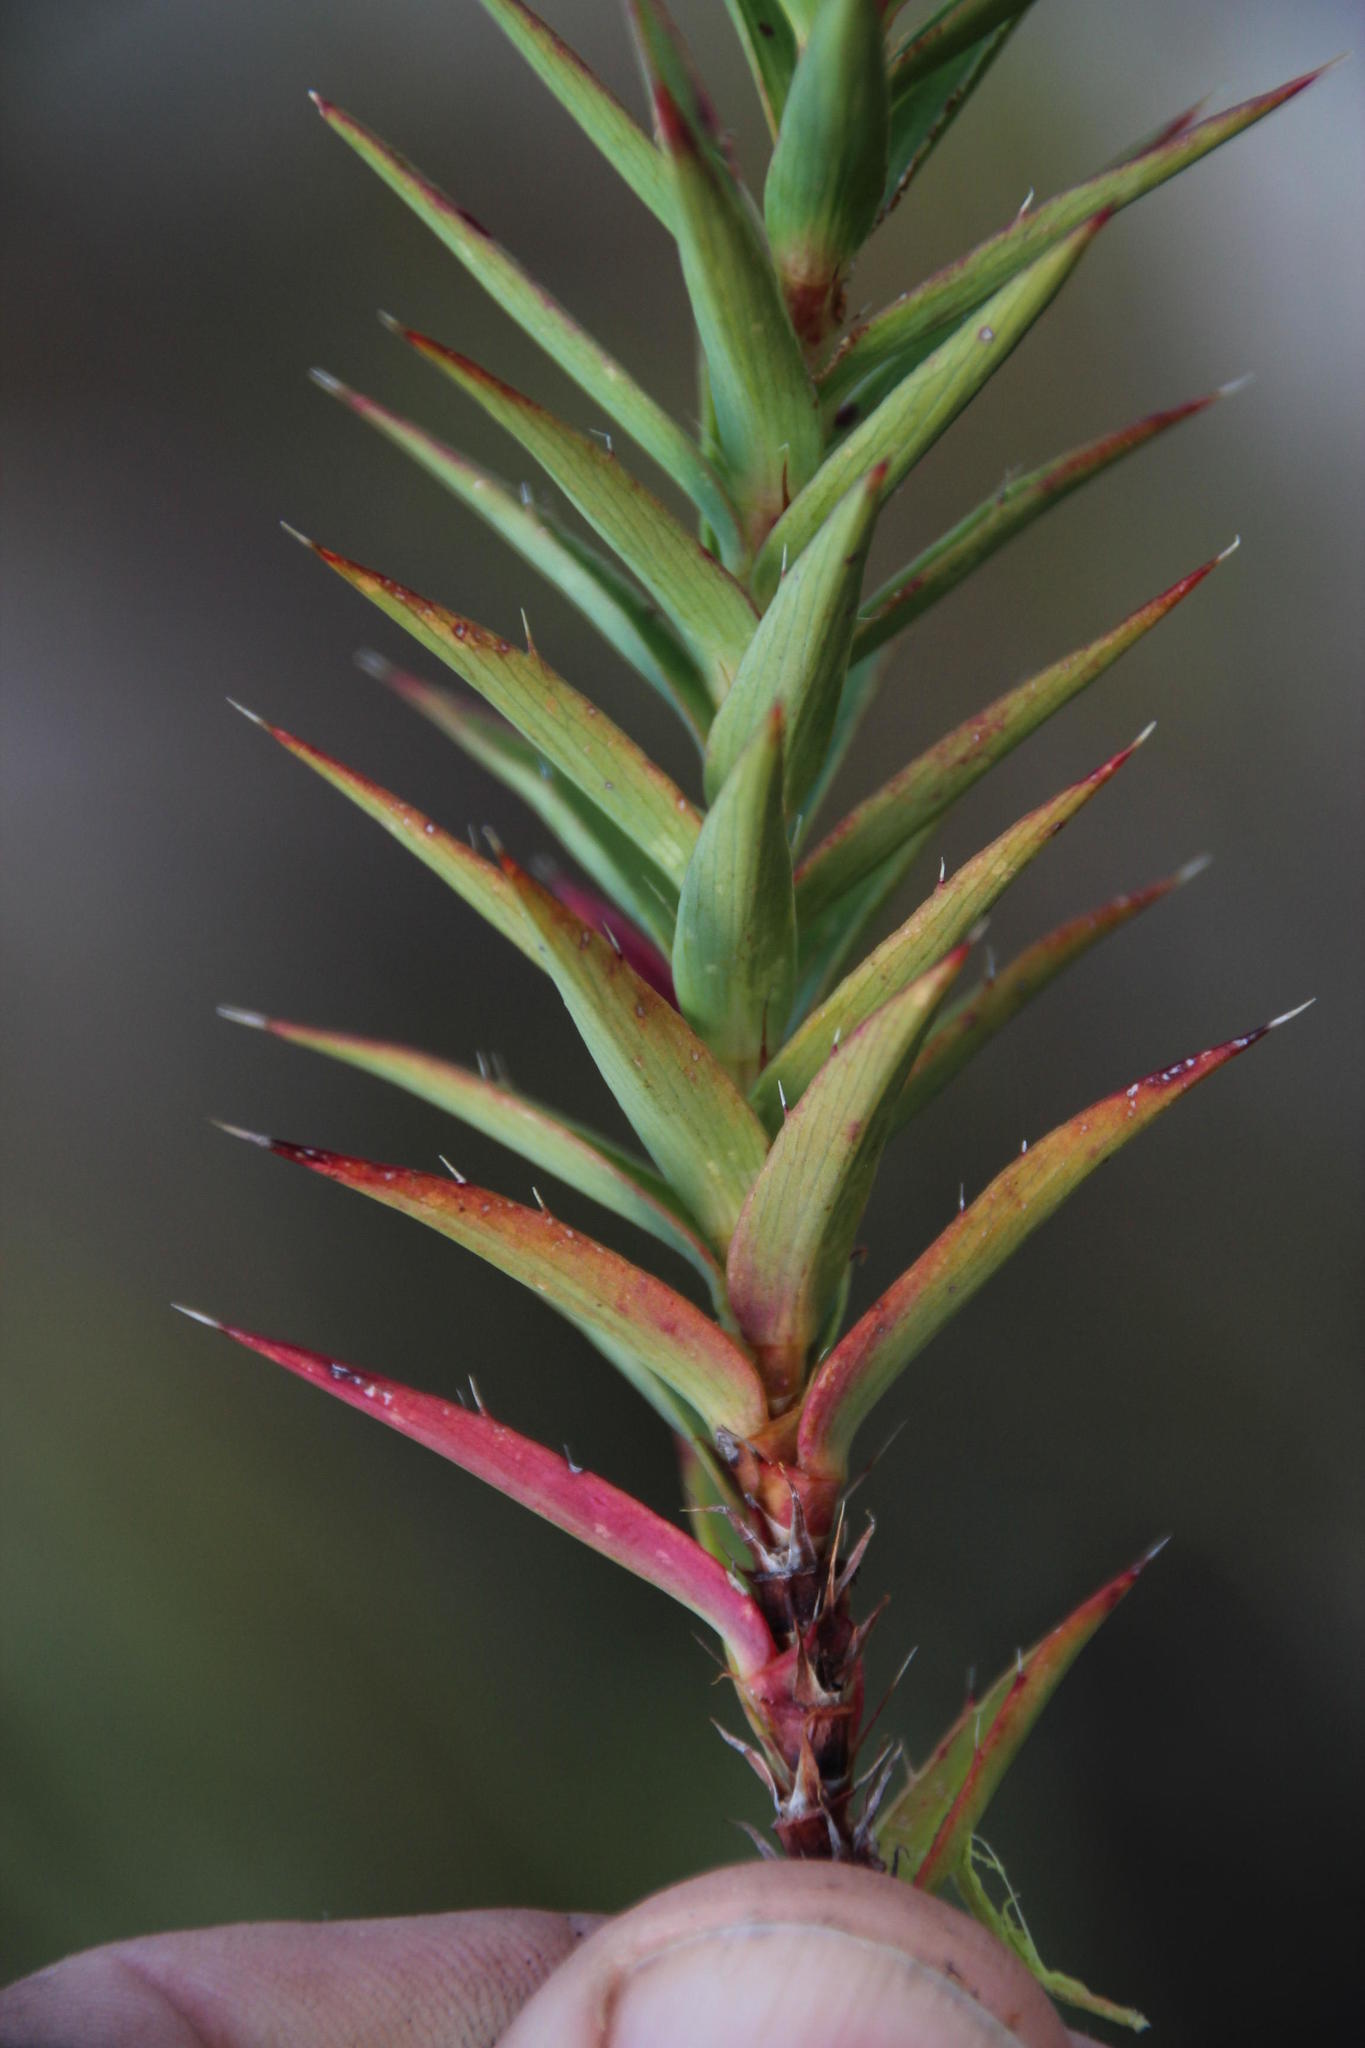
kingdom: Plantae
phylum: Tracheophyta
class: Magnoliopsida
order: Rosales
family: Rosaceae
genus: Cliffortia
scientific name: Cliffortia dregeana
